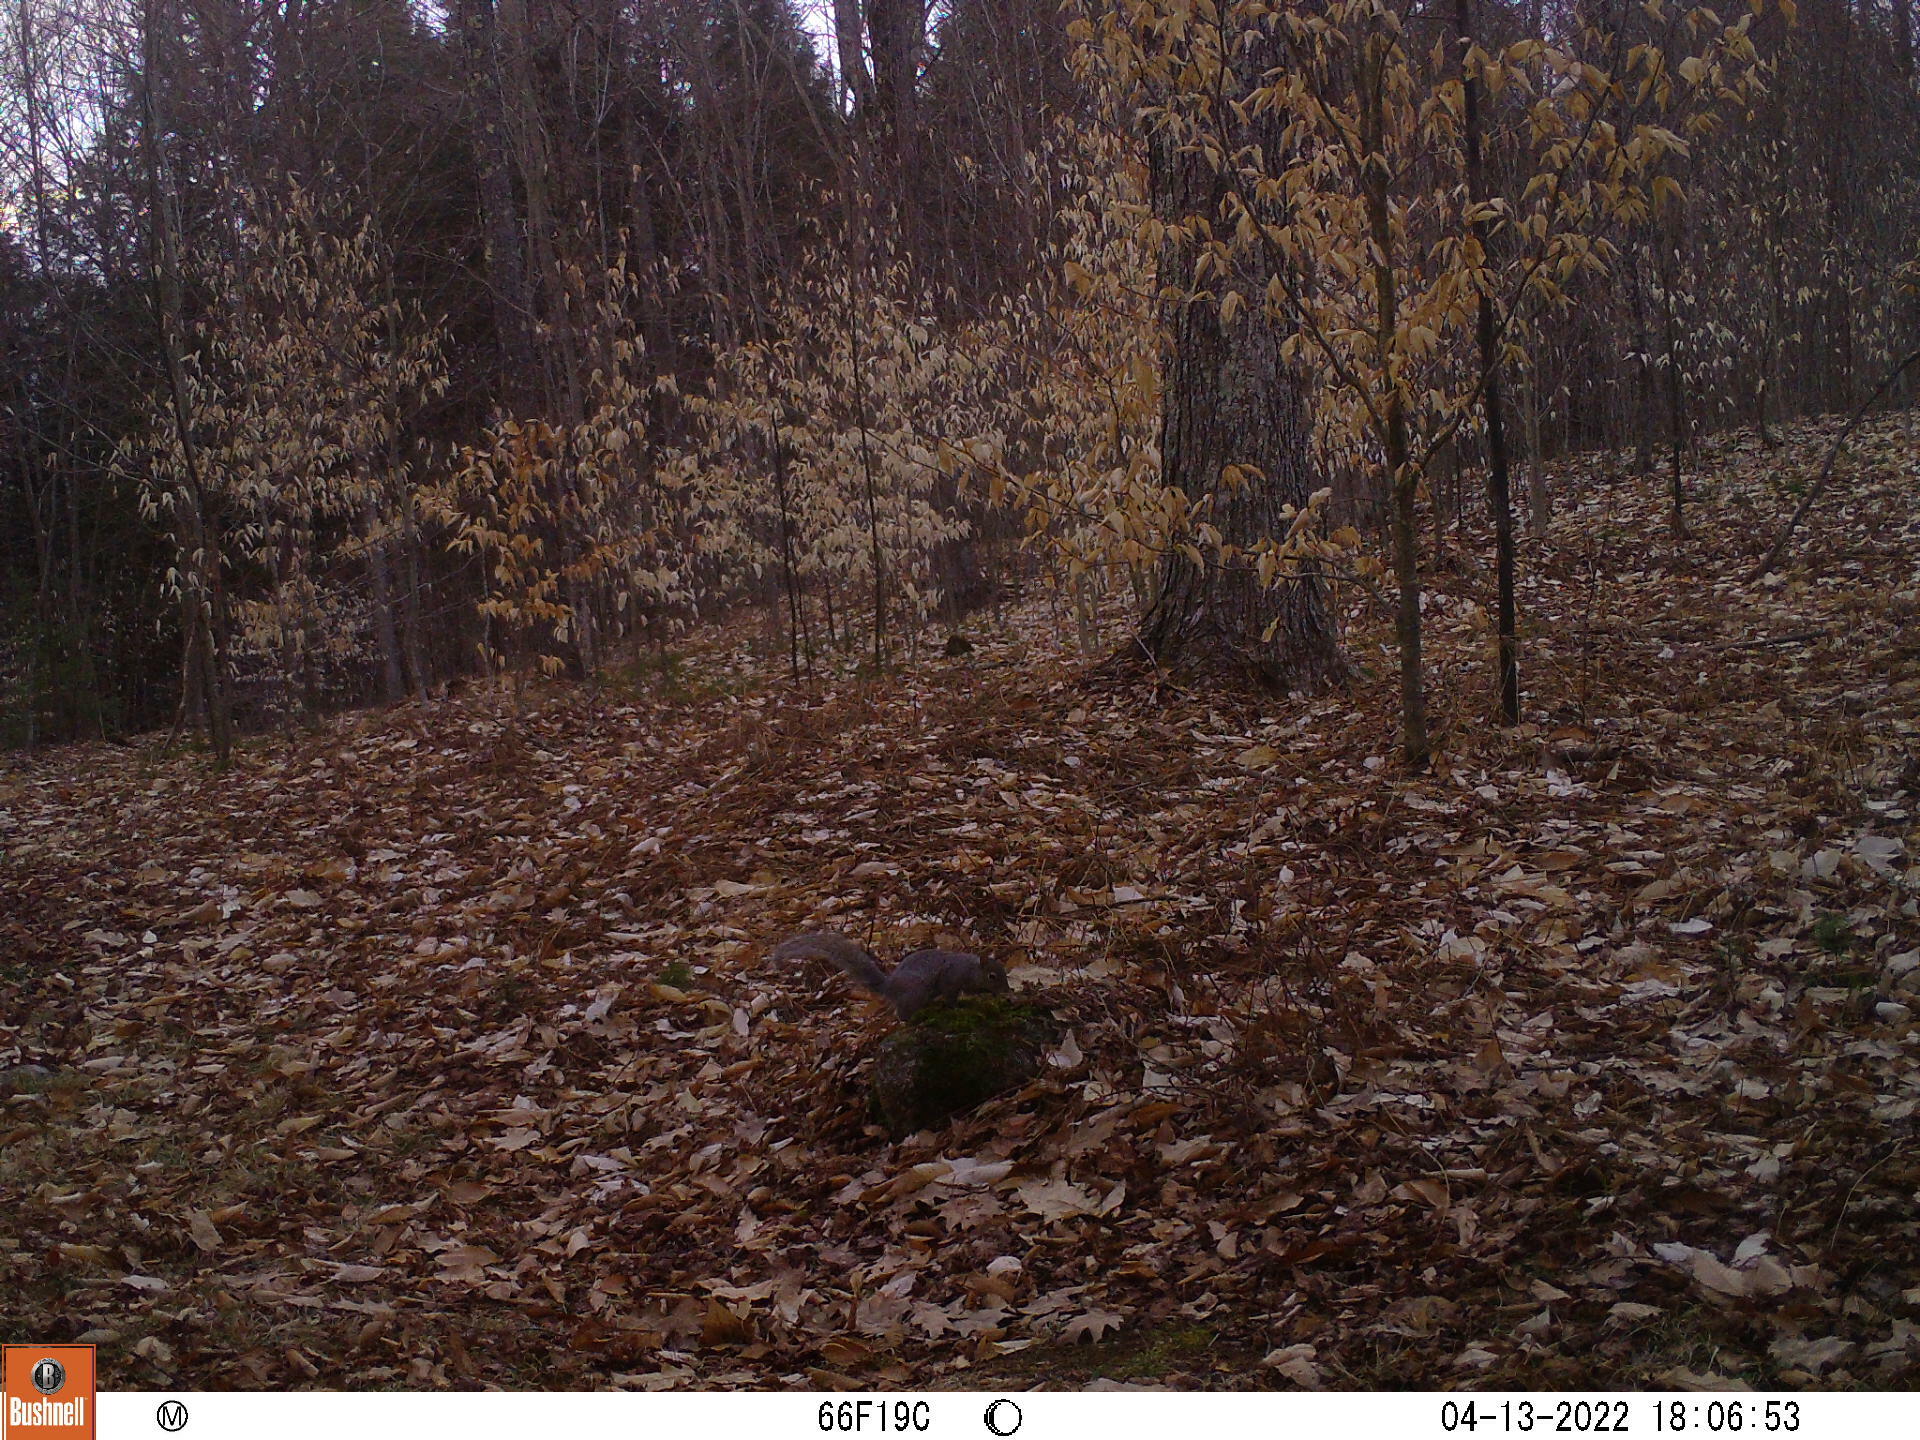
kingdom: Animalia
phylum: Chordata
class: Mammalia
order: Rodentia
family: Sciuridae
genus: Sciurus
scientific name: Sciurus carolinensis
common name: Eastern gray squirrel
